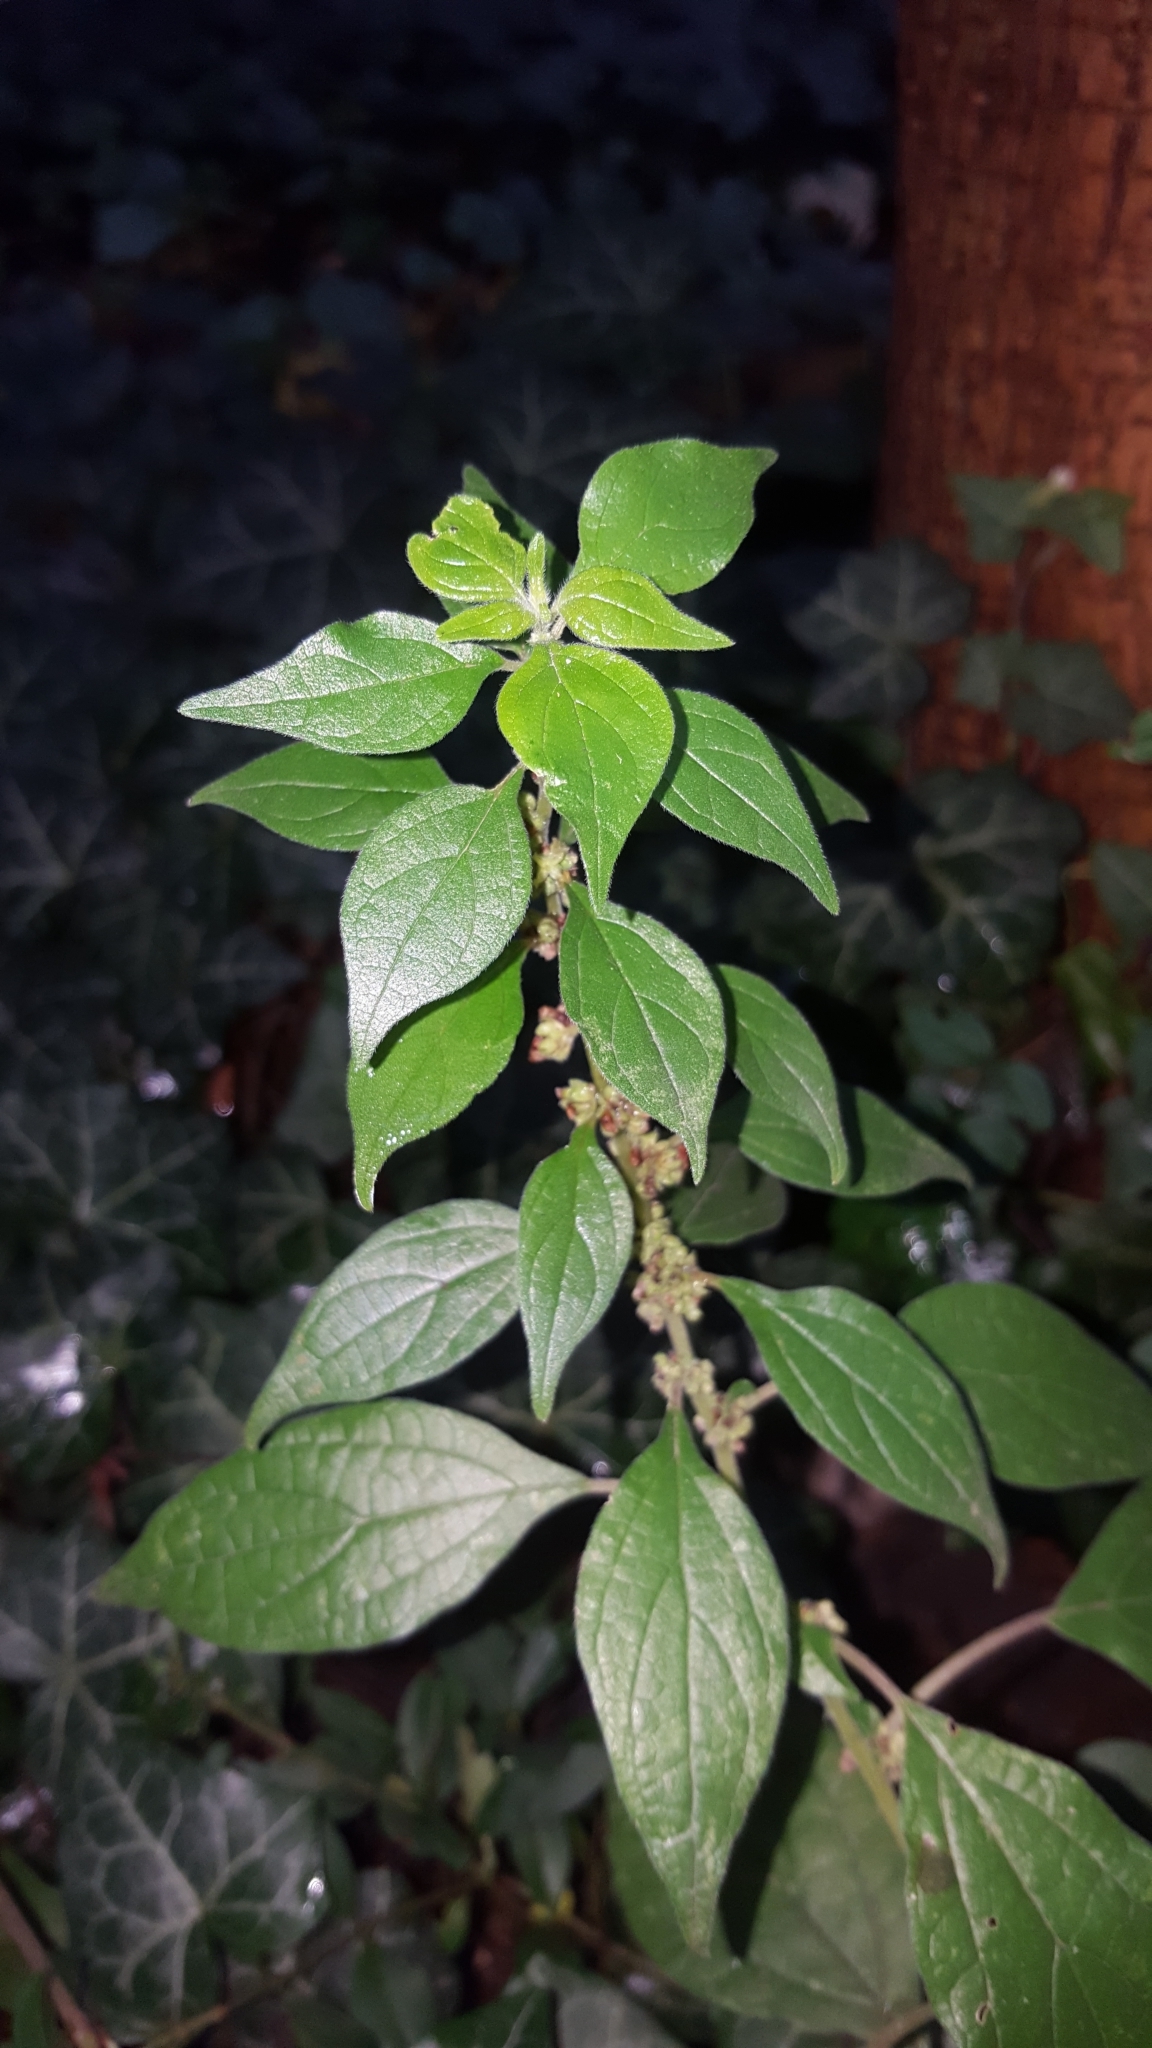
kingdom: Plantae
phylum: Tracheophyta
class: Magnoliopsida
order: Rosales
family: Urticaceae
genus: Parietaria
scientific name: Parietaria officinalis
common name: Eastern pellitory-of-the-wall
